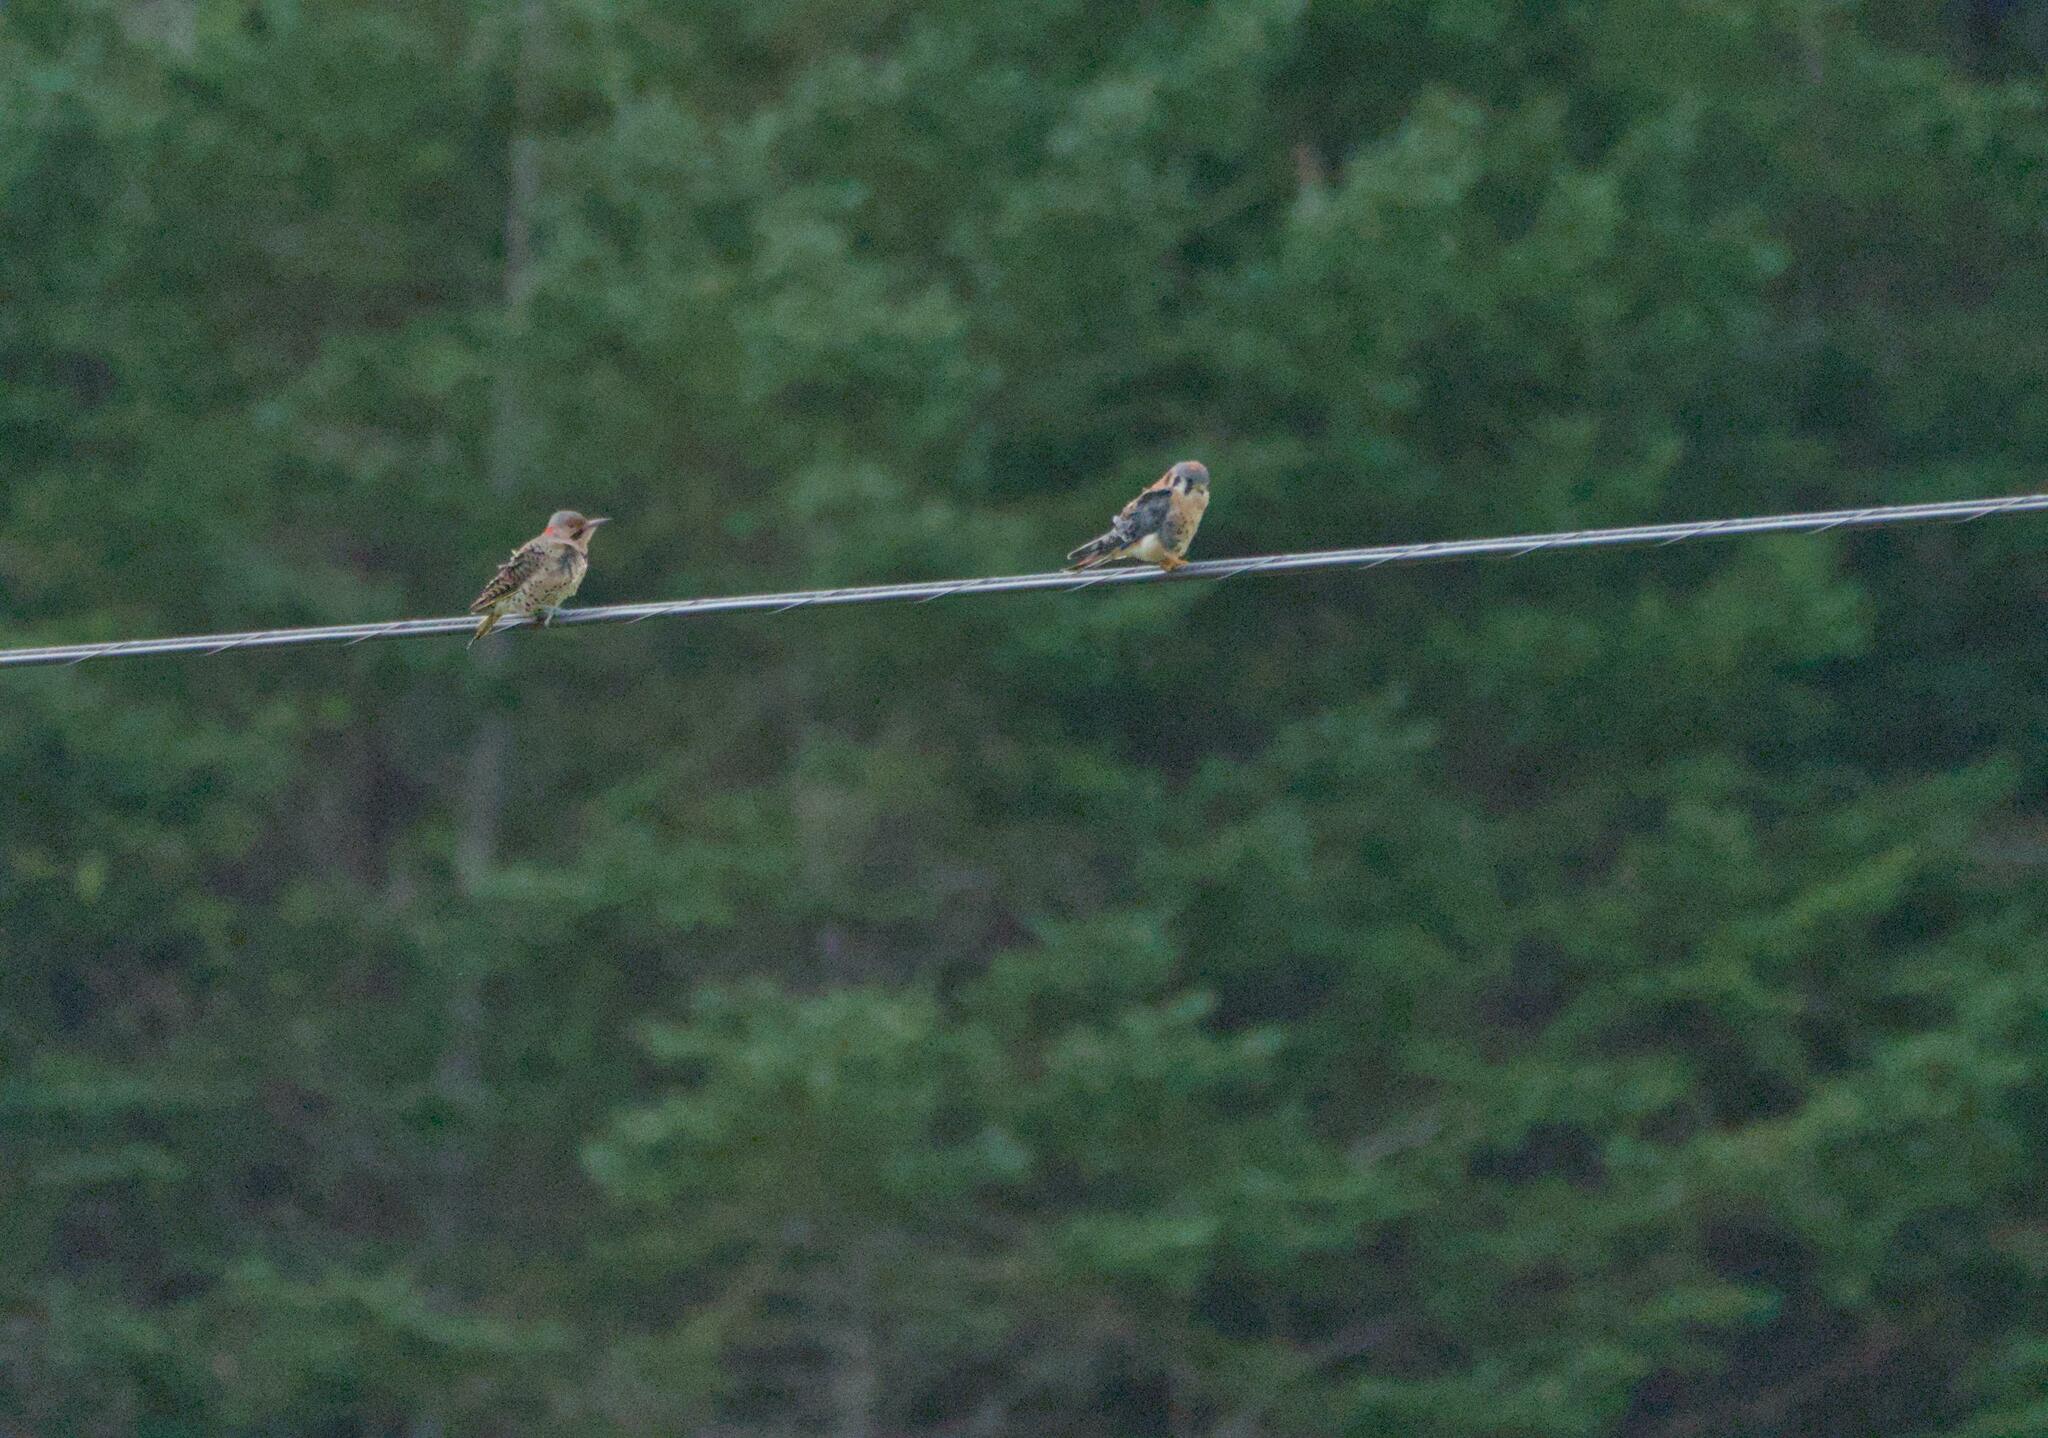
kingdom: Animalia
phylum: Chordata
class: Aves
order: Piciformes
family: Picidae
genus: Colaptes
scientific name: Colaptes auratus
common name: Northern flicker
